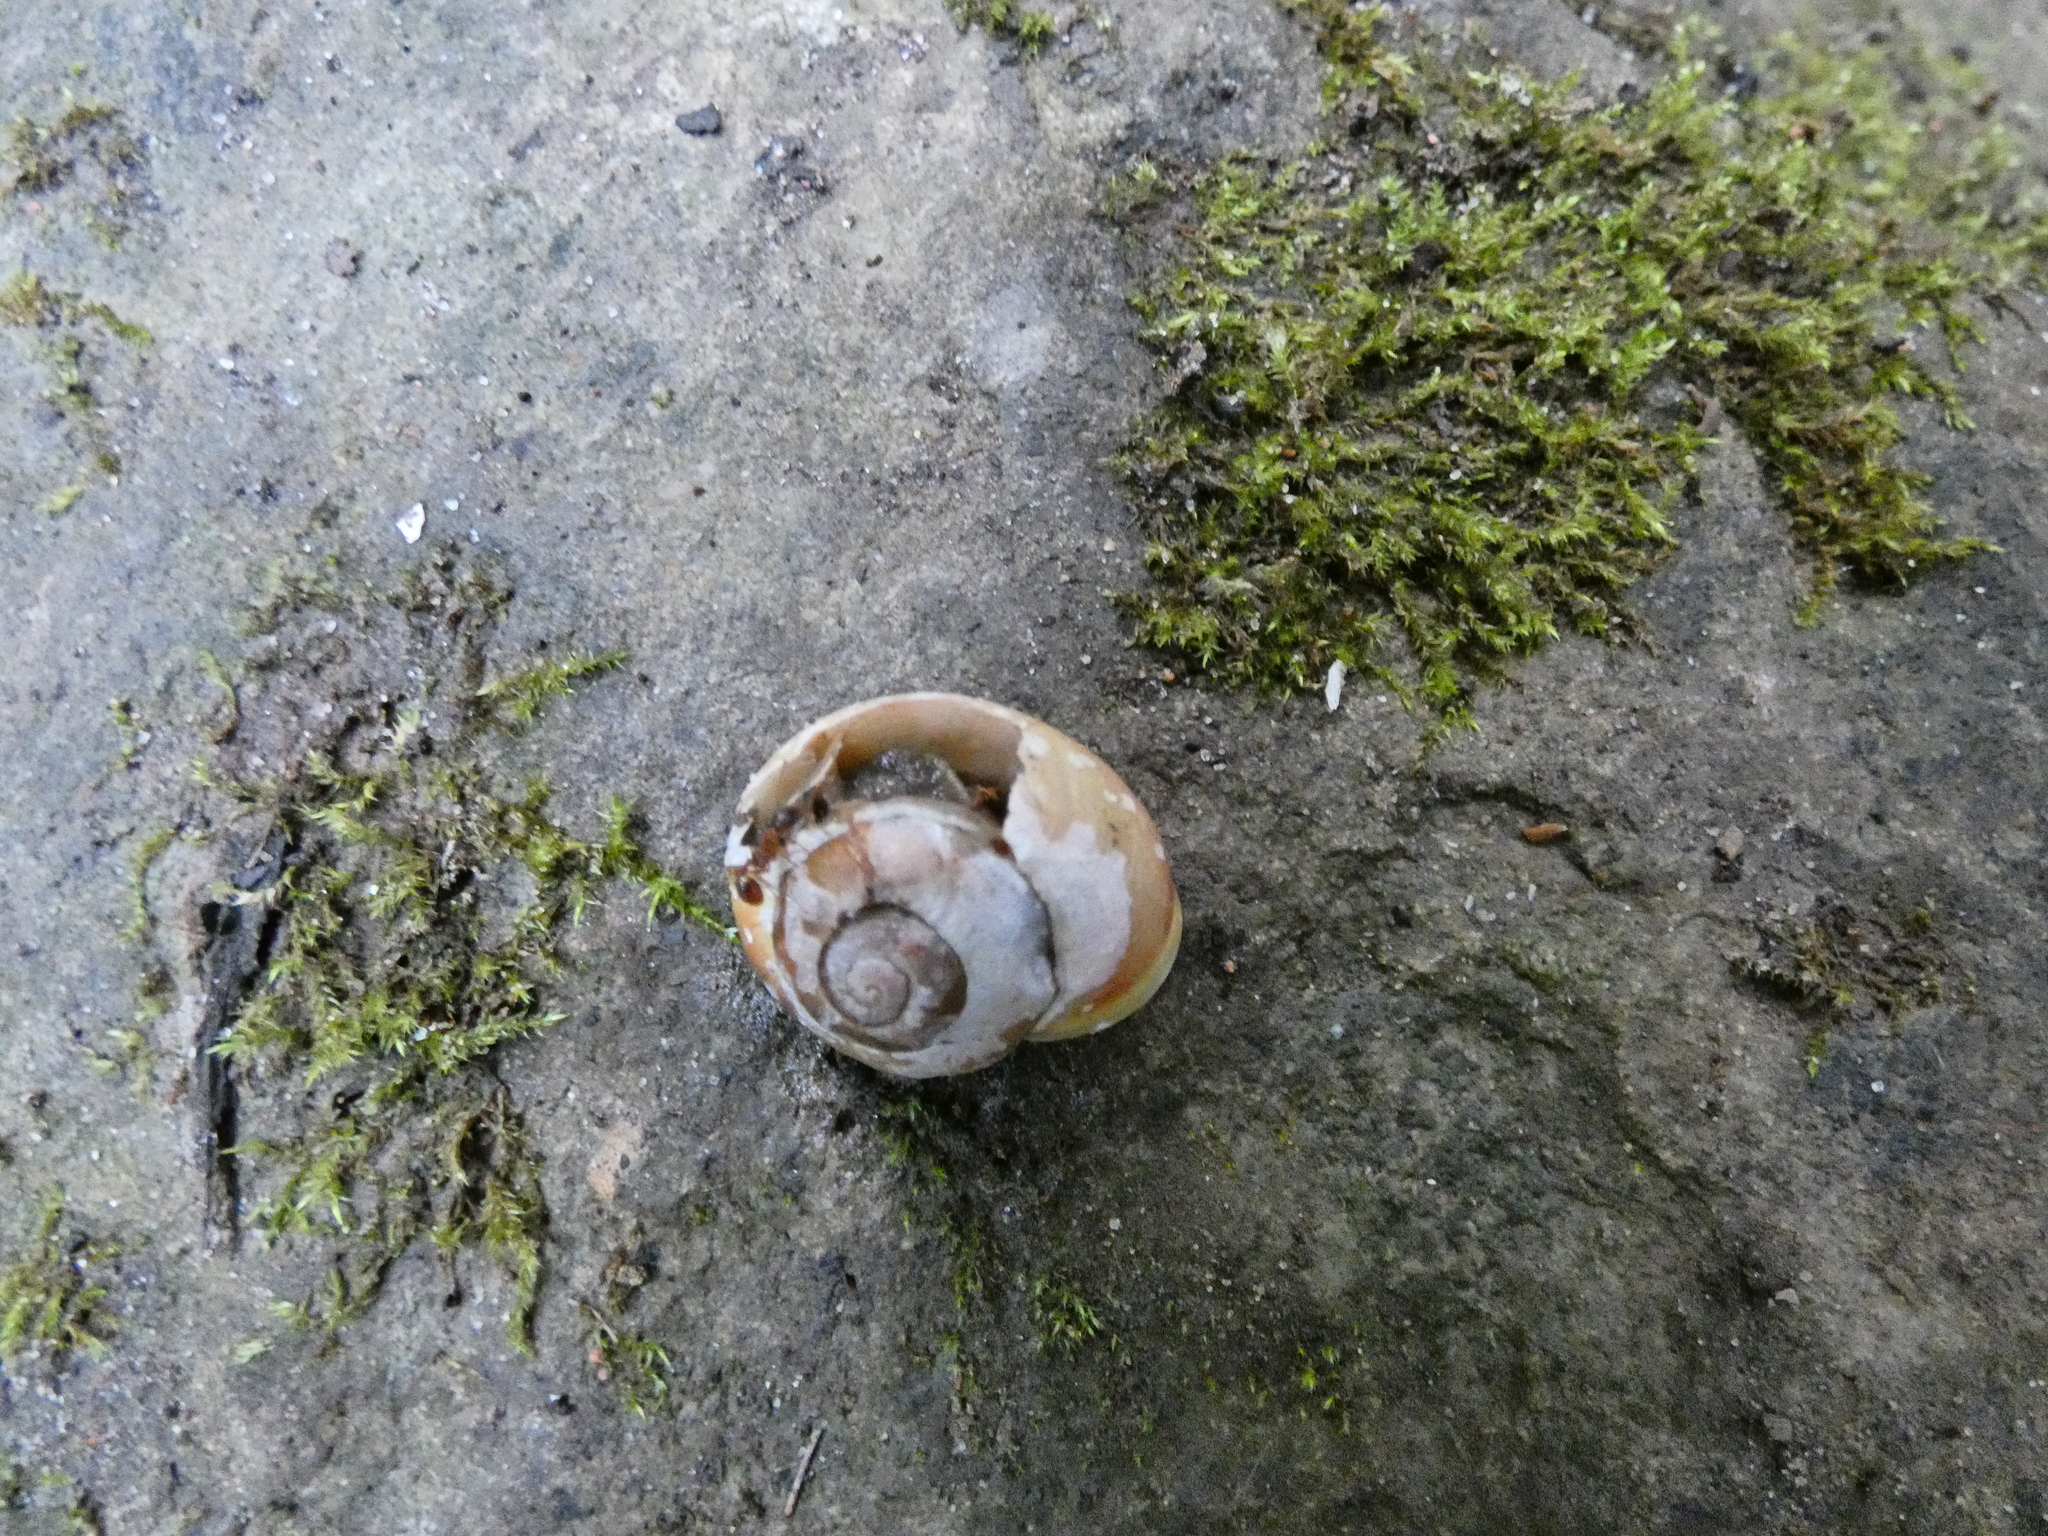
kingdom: Animalia
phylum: Mollusca
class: Gastropoda
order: Stylommatophora
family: Helicidae
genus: Cepaea
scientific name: Cepaea hortensis
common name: White-lip gardensnail
